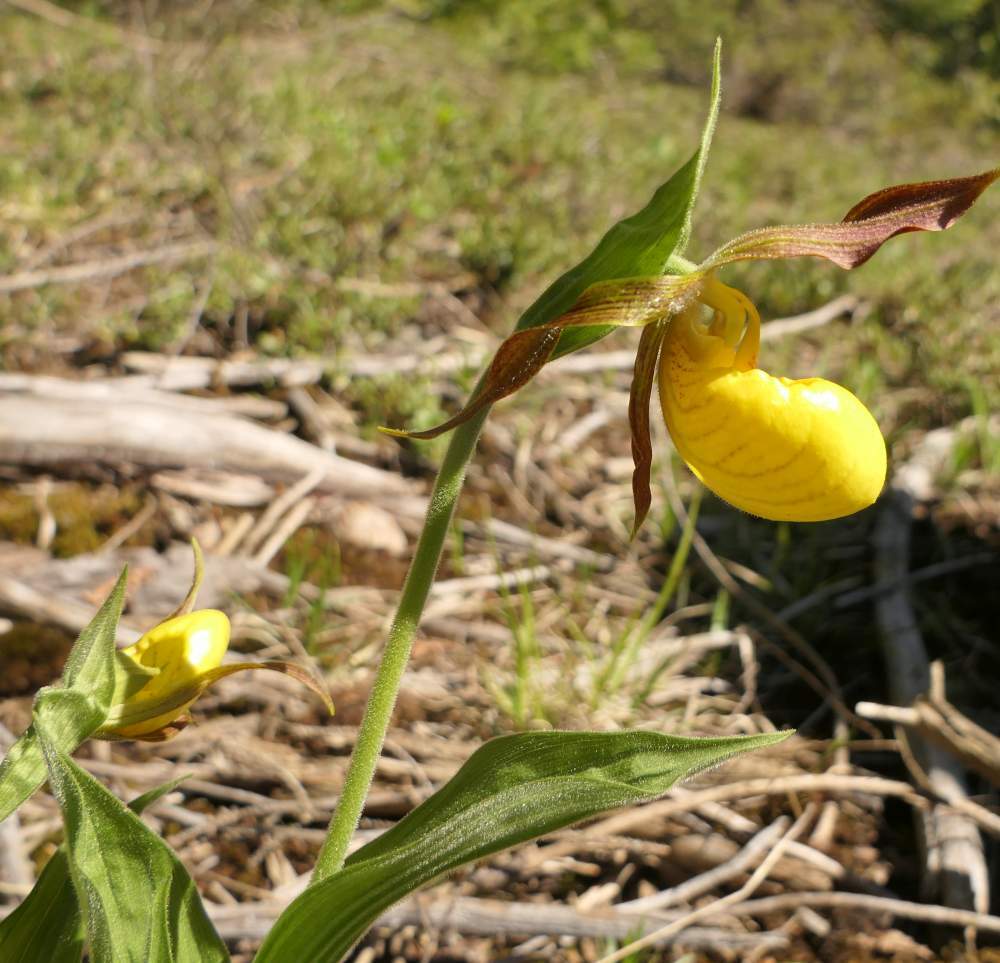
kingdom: Plantae
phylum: Tracheophyta
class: Liliopsida
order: Asparagales
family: Orchidaceae
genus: Cypripedium
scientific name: Cypripedium parviflorum
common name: American yellow lady's-slipper
